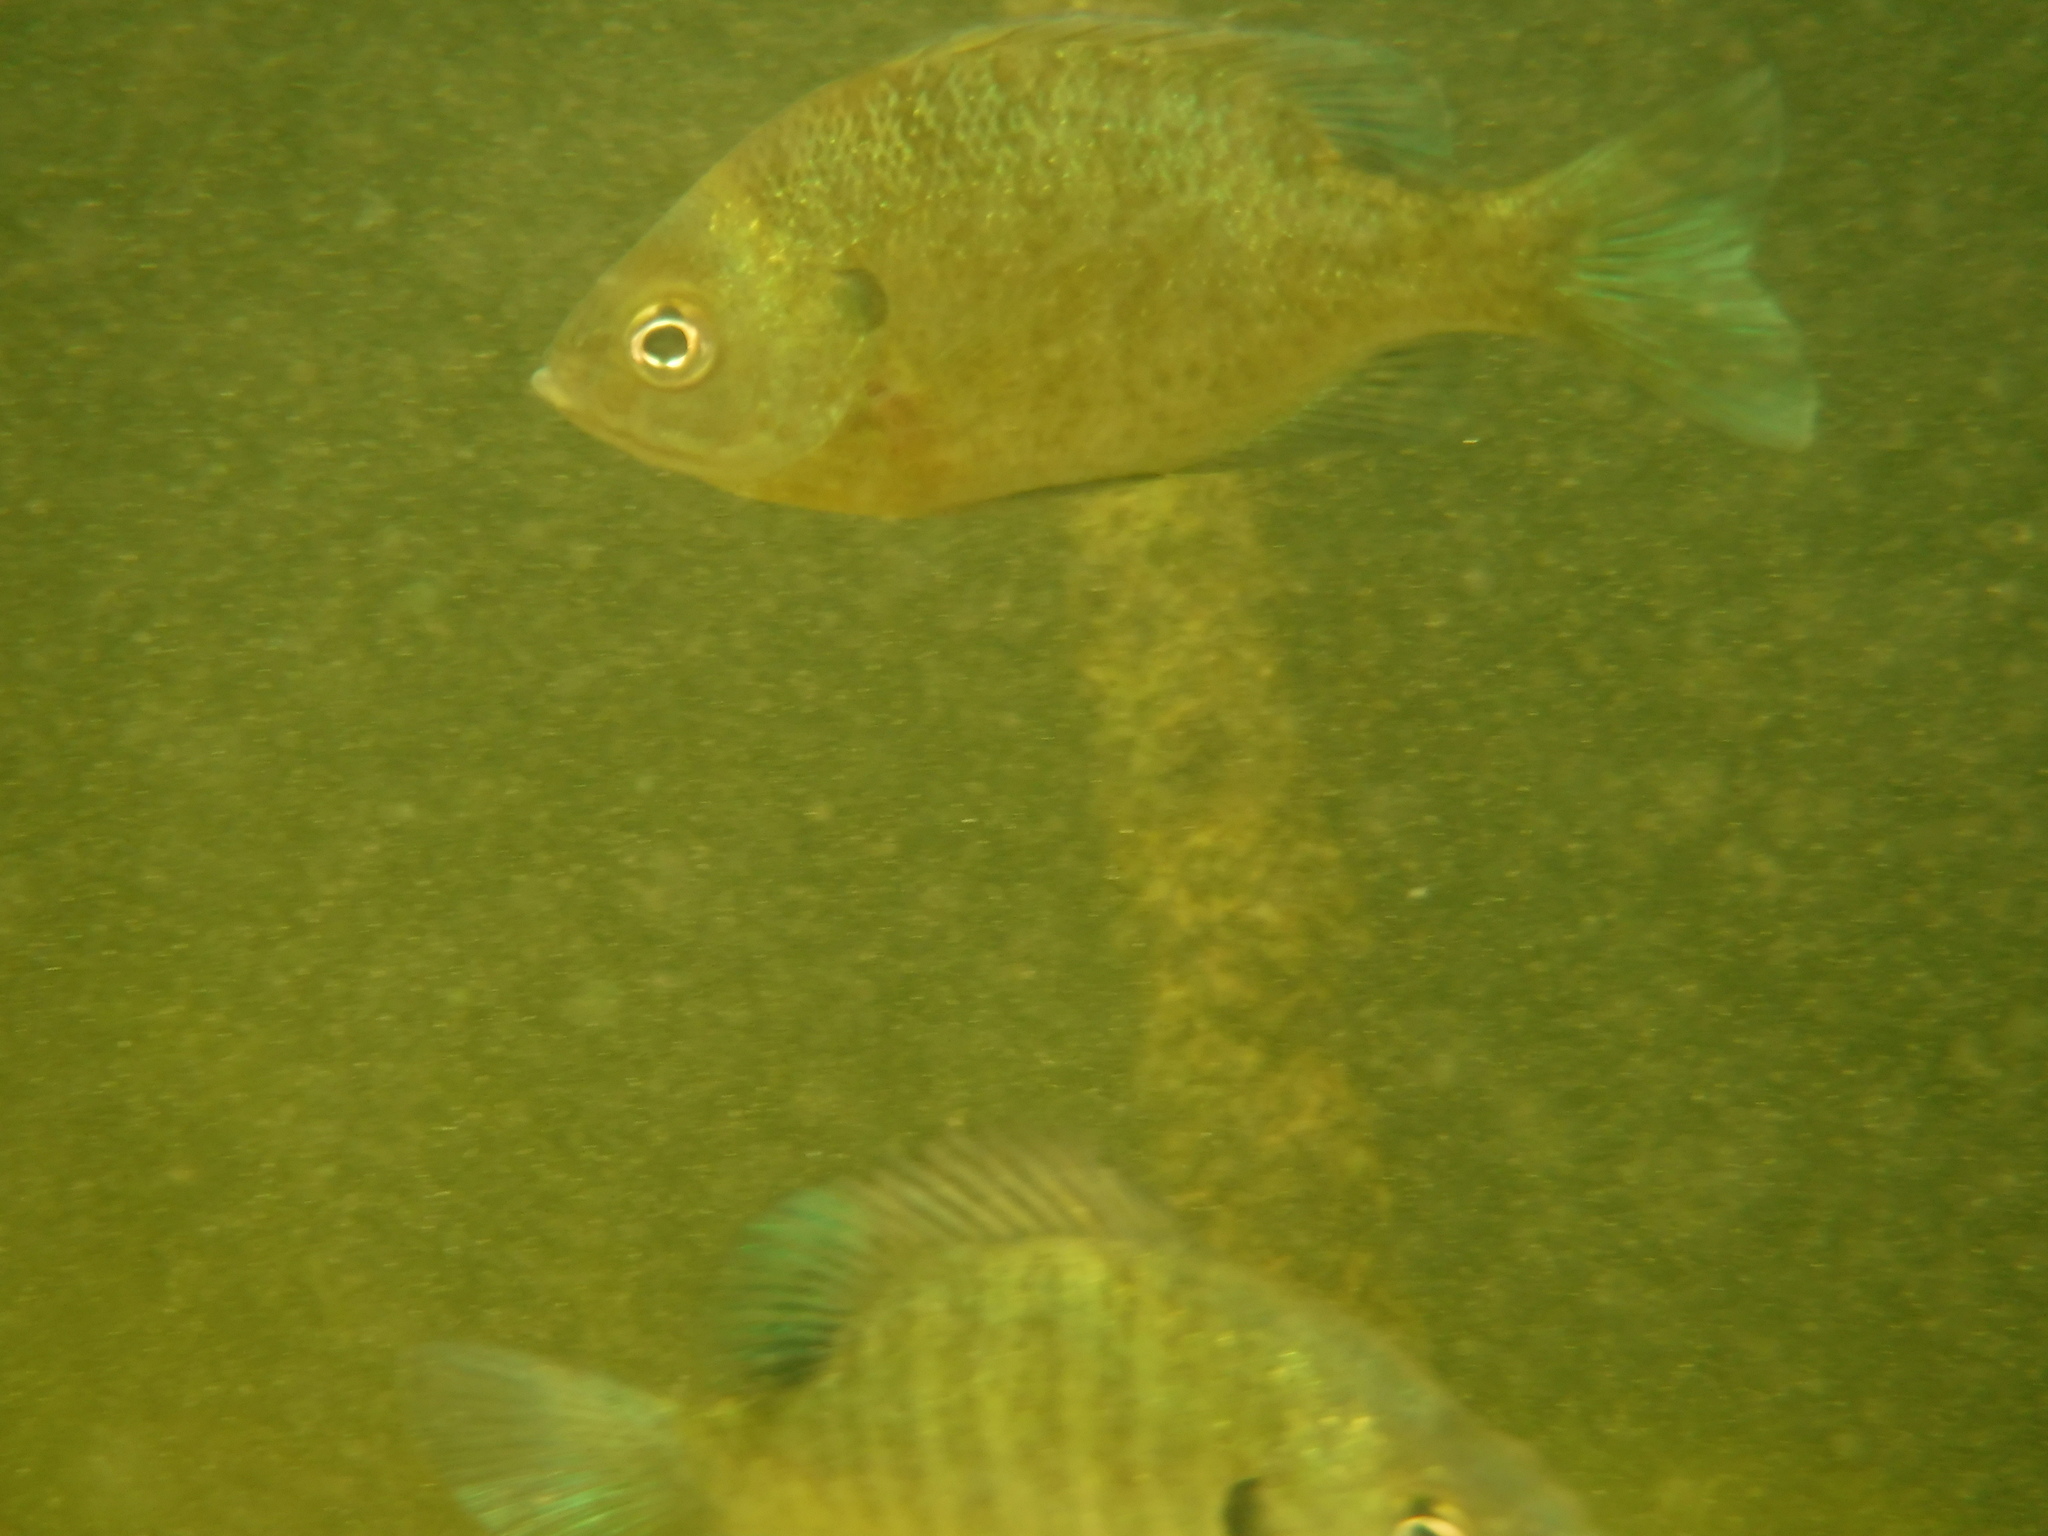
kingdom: Animalia
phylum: Chordata
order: Perciformes
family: Centrarchidae
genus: Lepomis
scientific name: Lepomis macrochirus
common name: Bluegill
